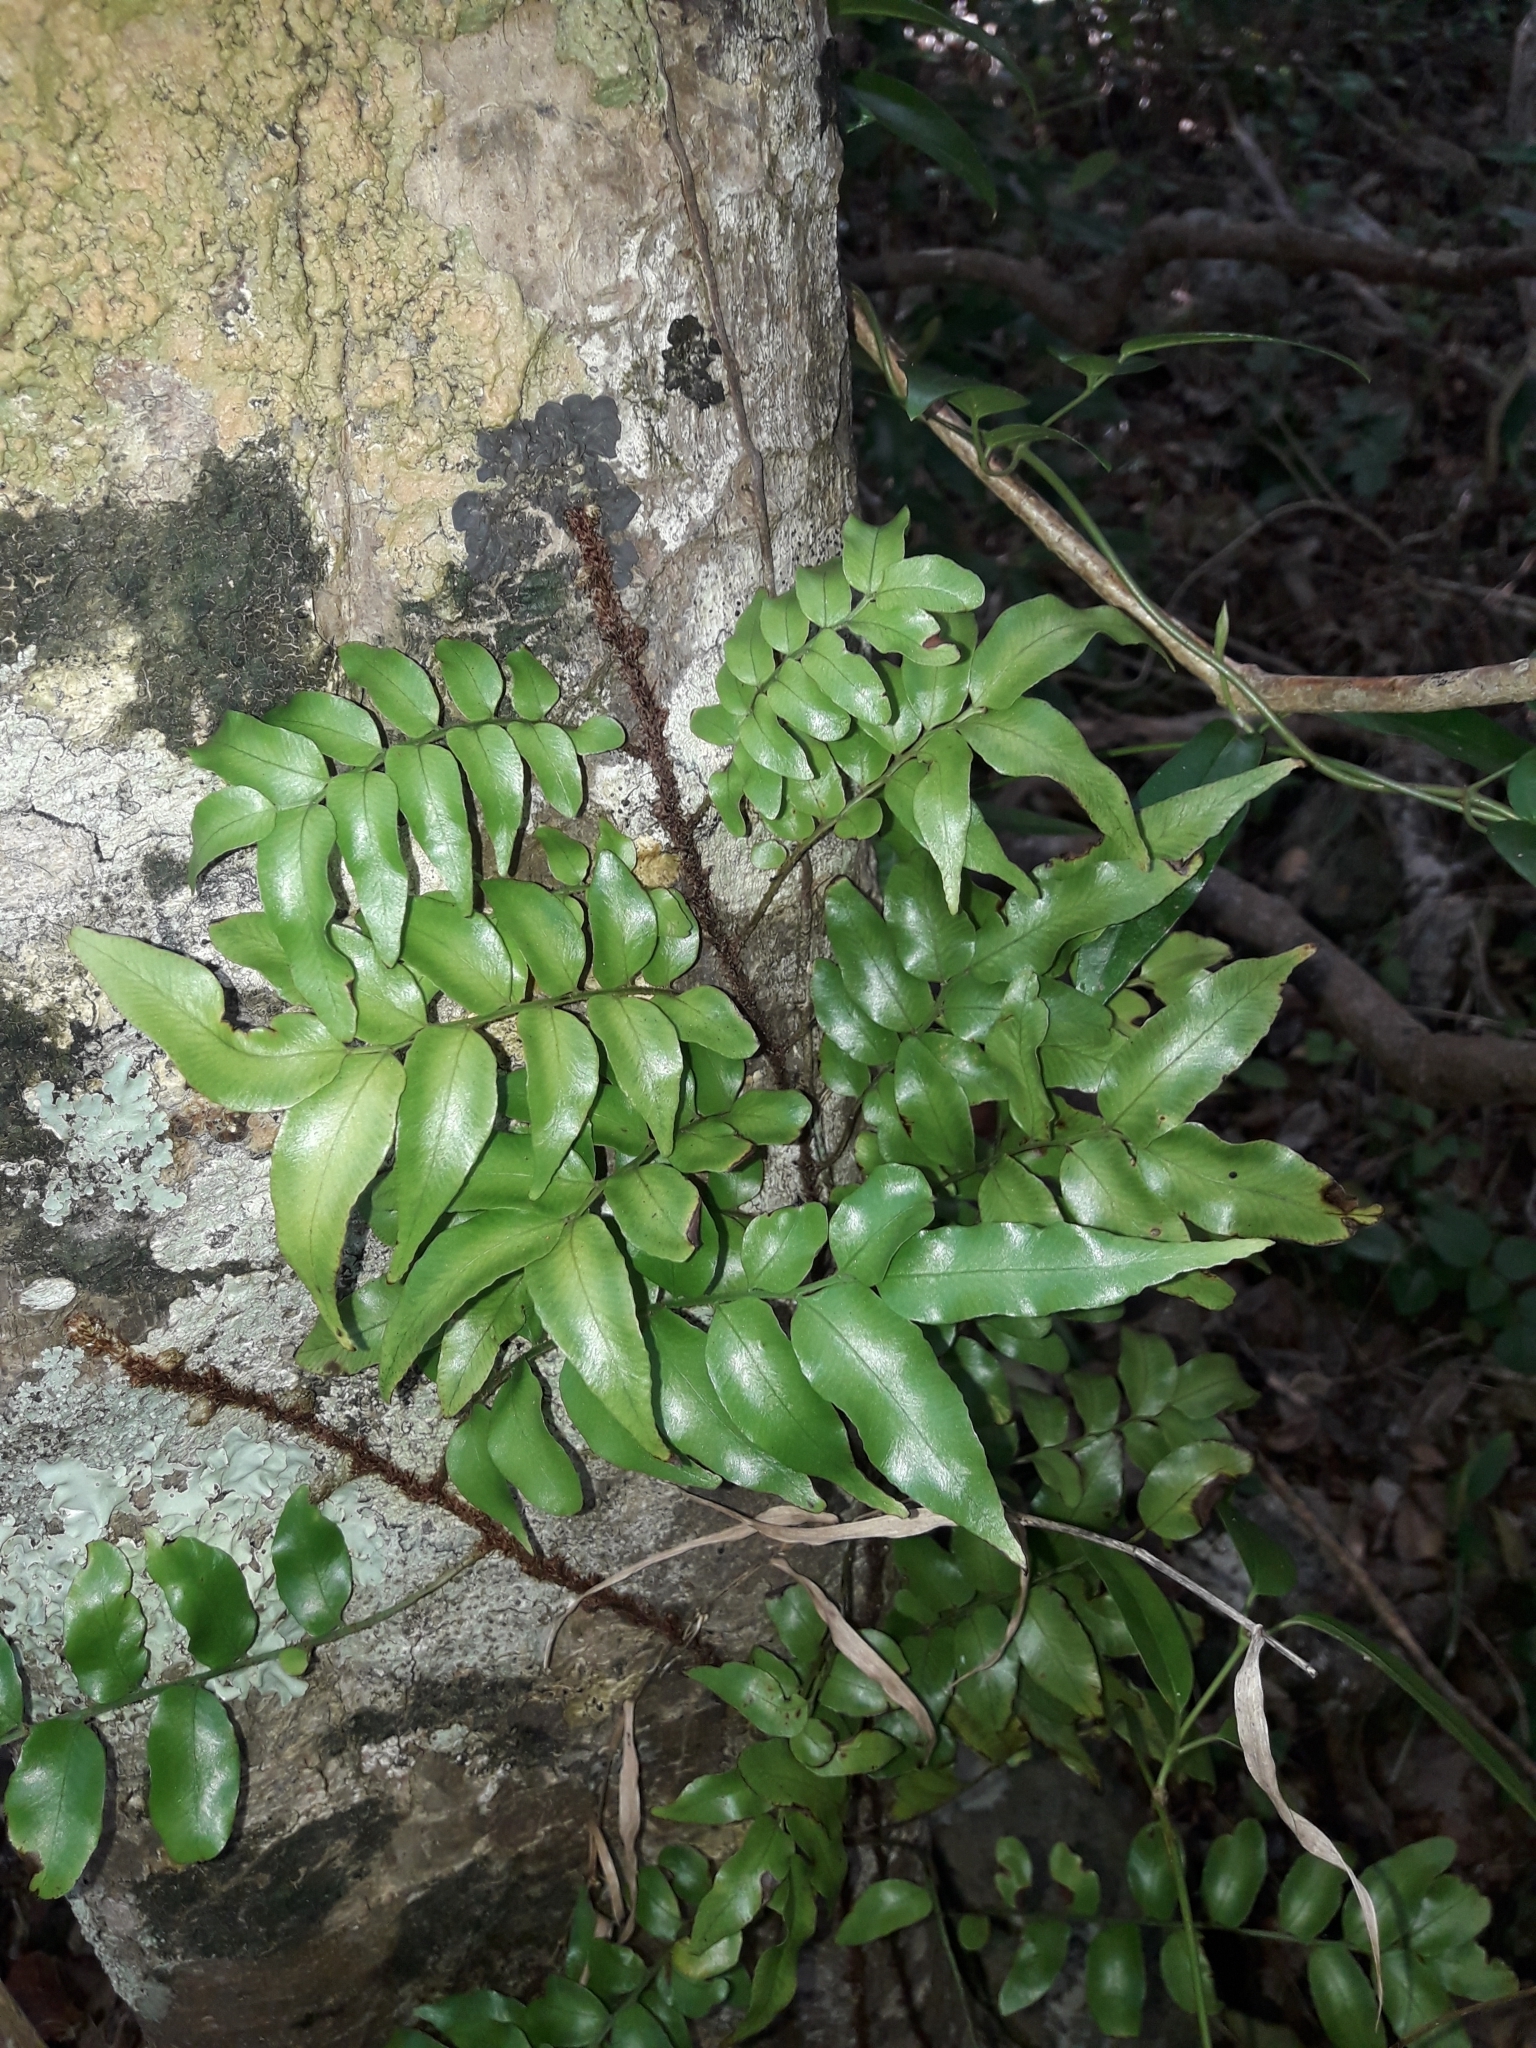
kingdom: Plantae
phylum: Tracheophyta
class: Polypodiopsida
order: Polypodiales
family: Tectariaceae
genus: Arthropteris
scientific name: Arthropteris tenella
